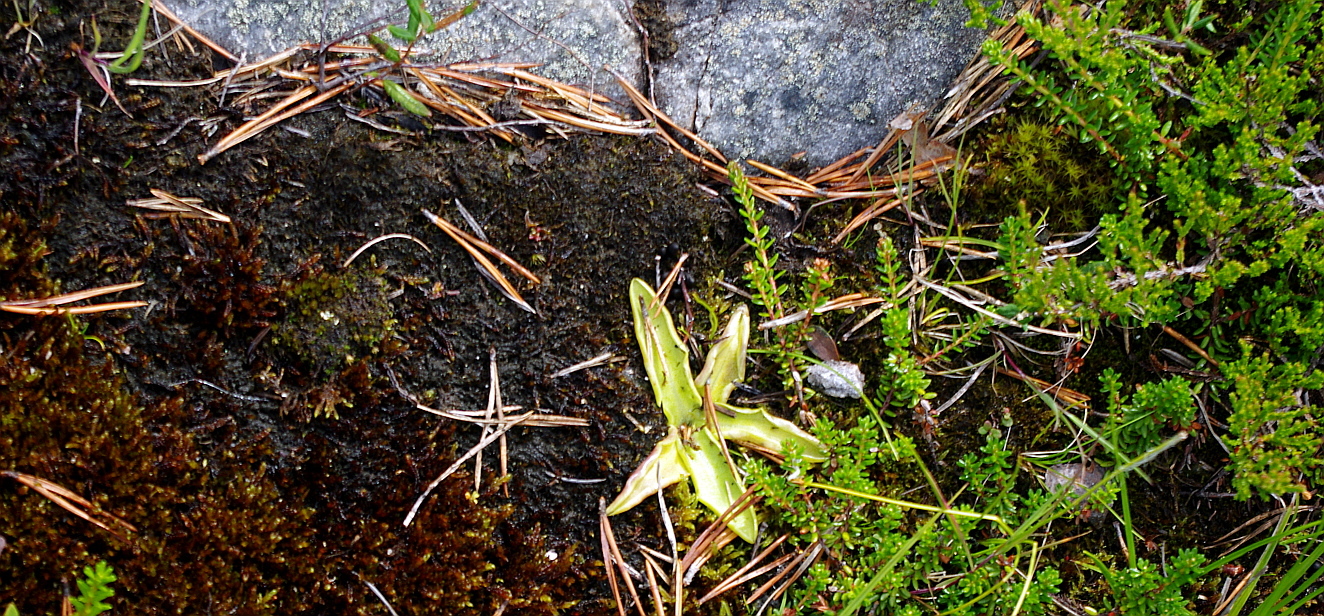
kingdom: Plantae
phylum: Tracheophyta
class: Magnoliopsida
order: Lamiales
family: Lentibulariaceae
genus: Pinguicula
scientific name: Pinguicula vulgaris
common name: Common butterwort
